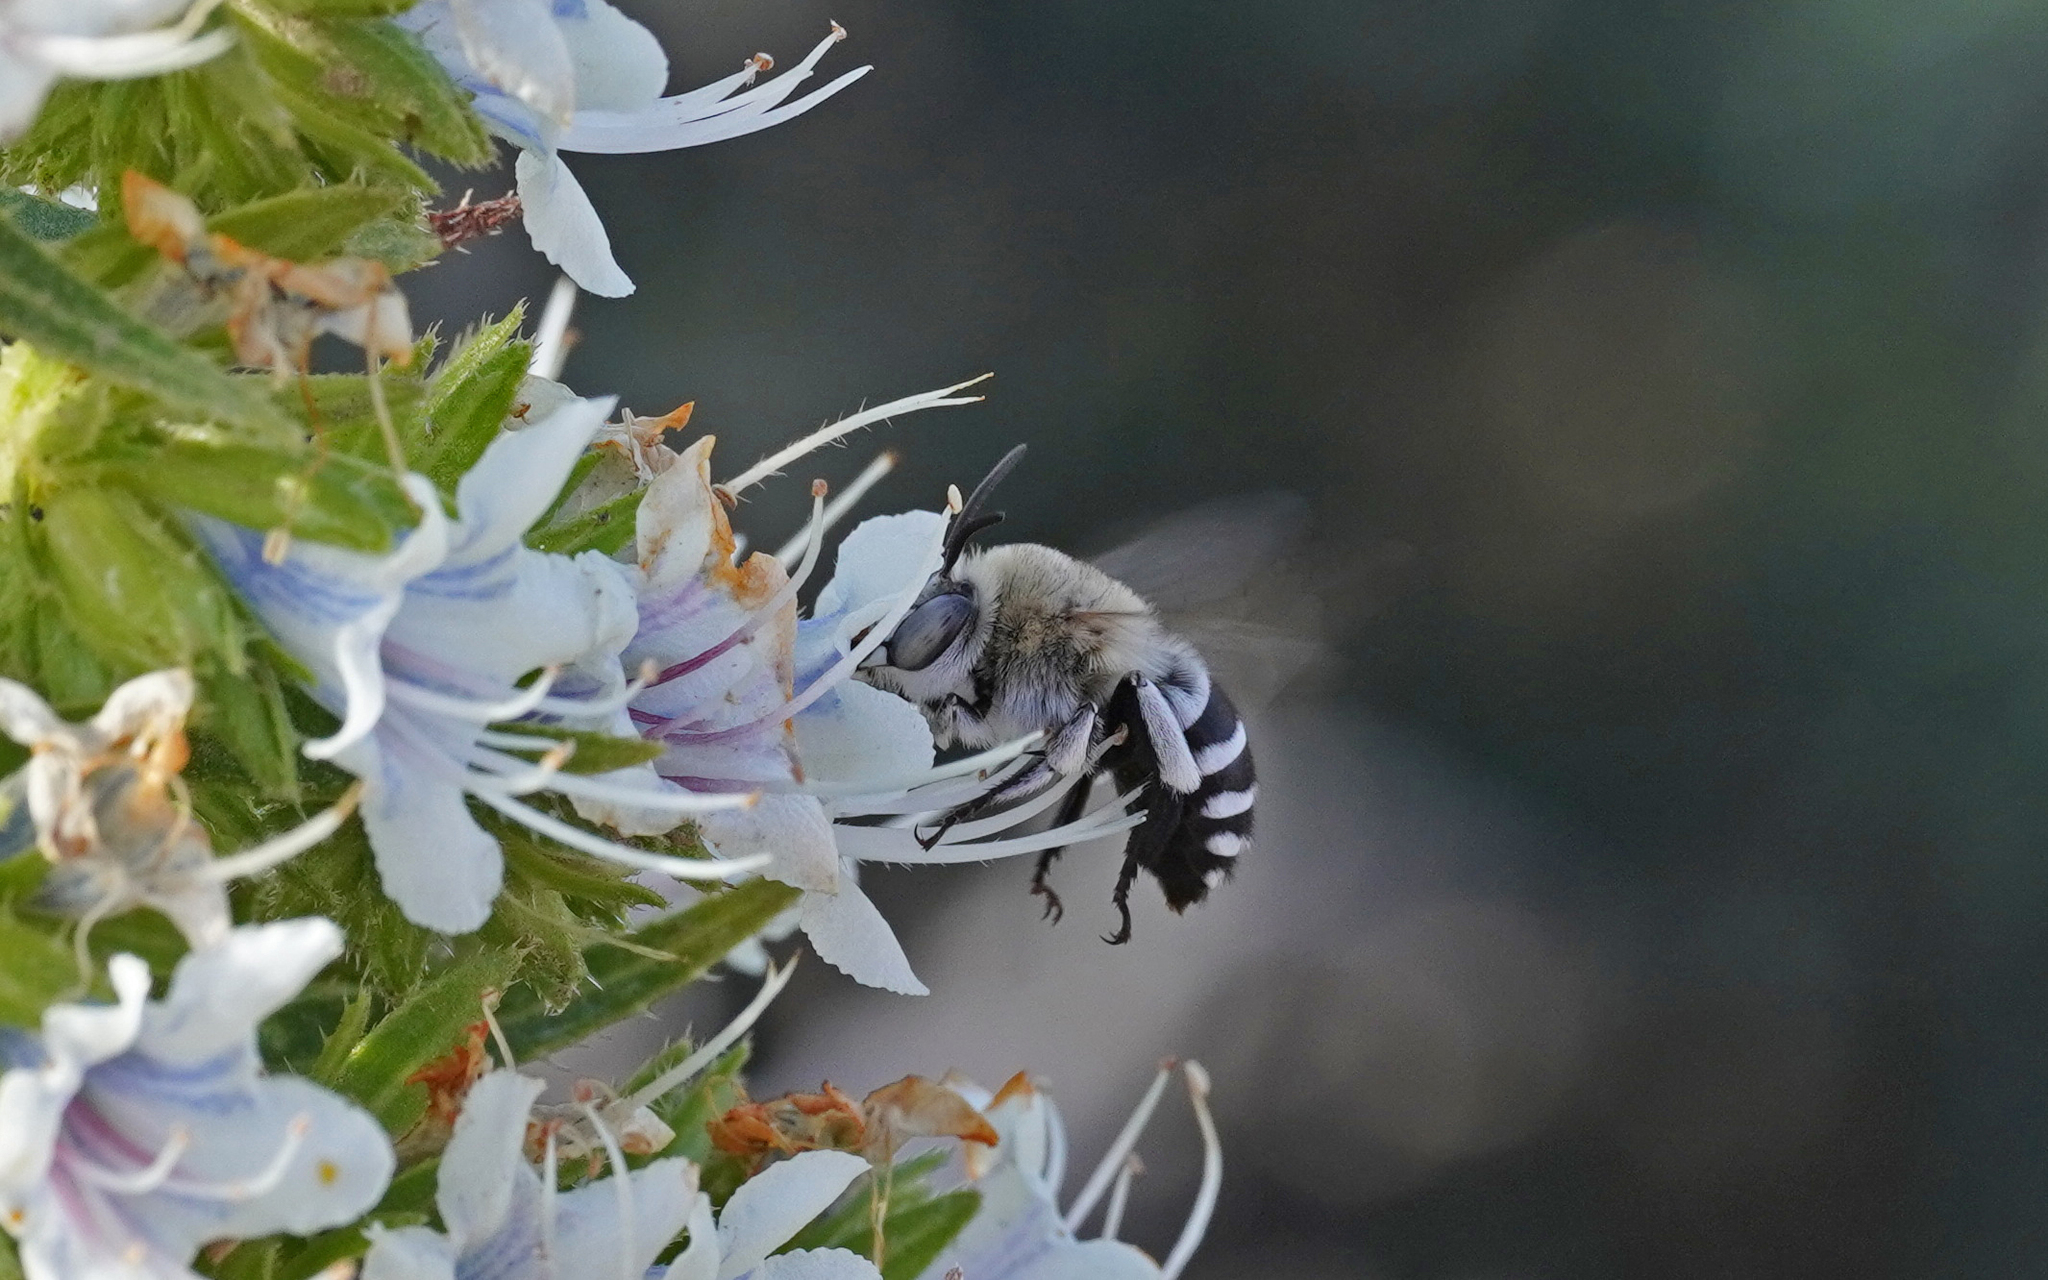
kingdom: Animalia
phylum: Arthropoda
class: Insecta
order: Hymenoptera
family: Apidae
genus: Amegilla
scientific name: Amegilla quadrifasciata
